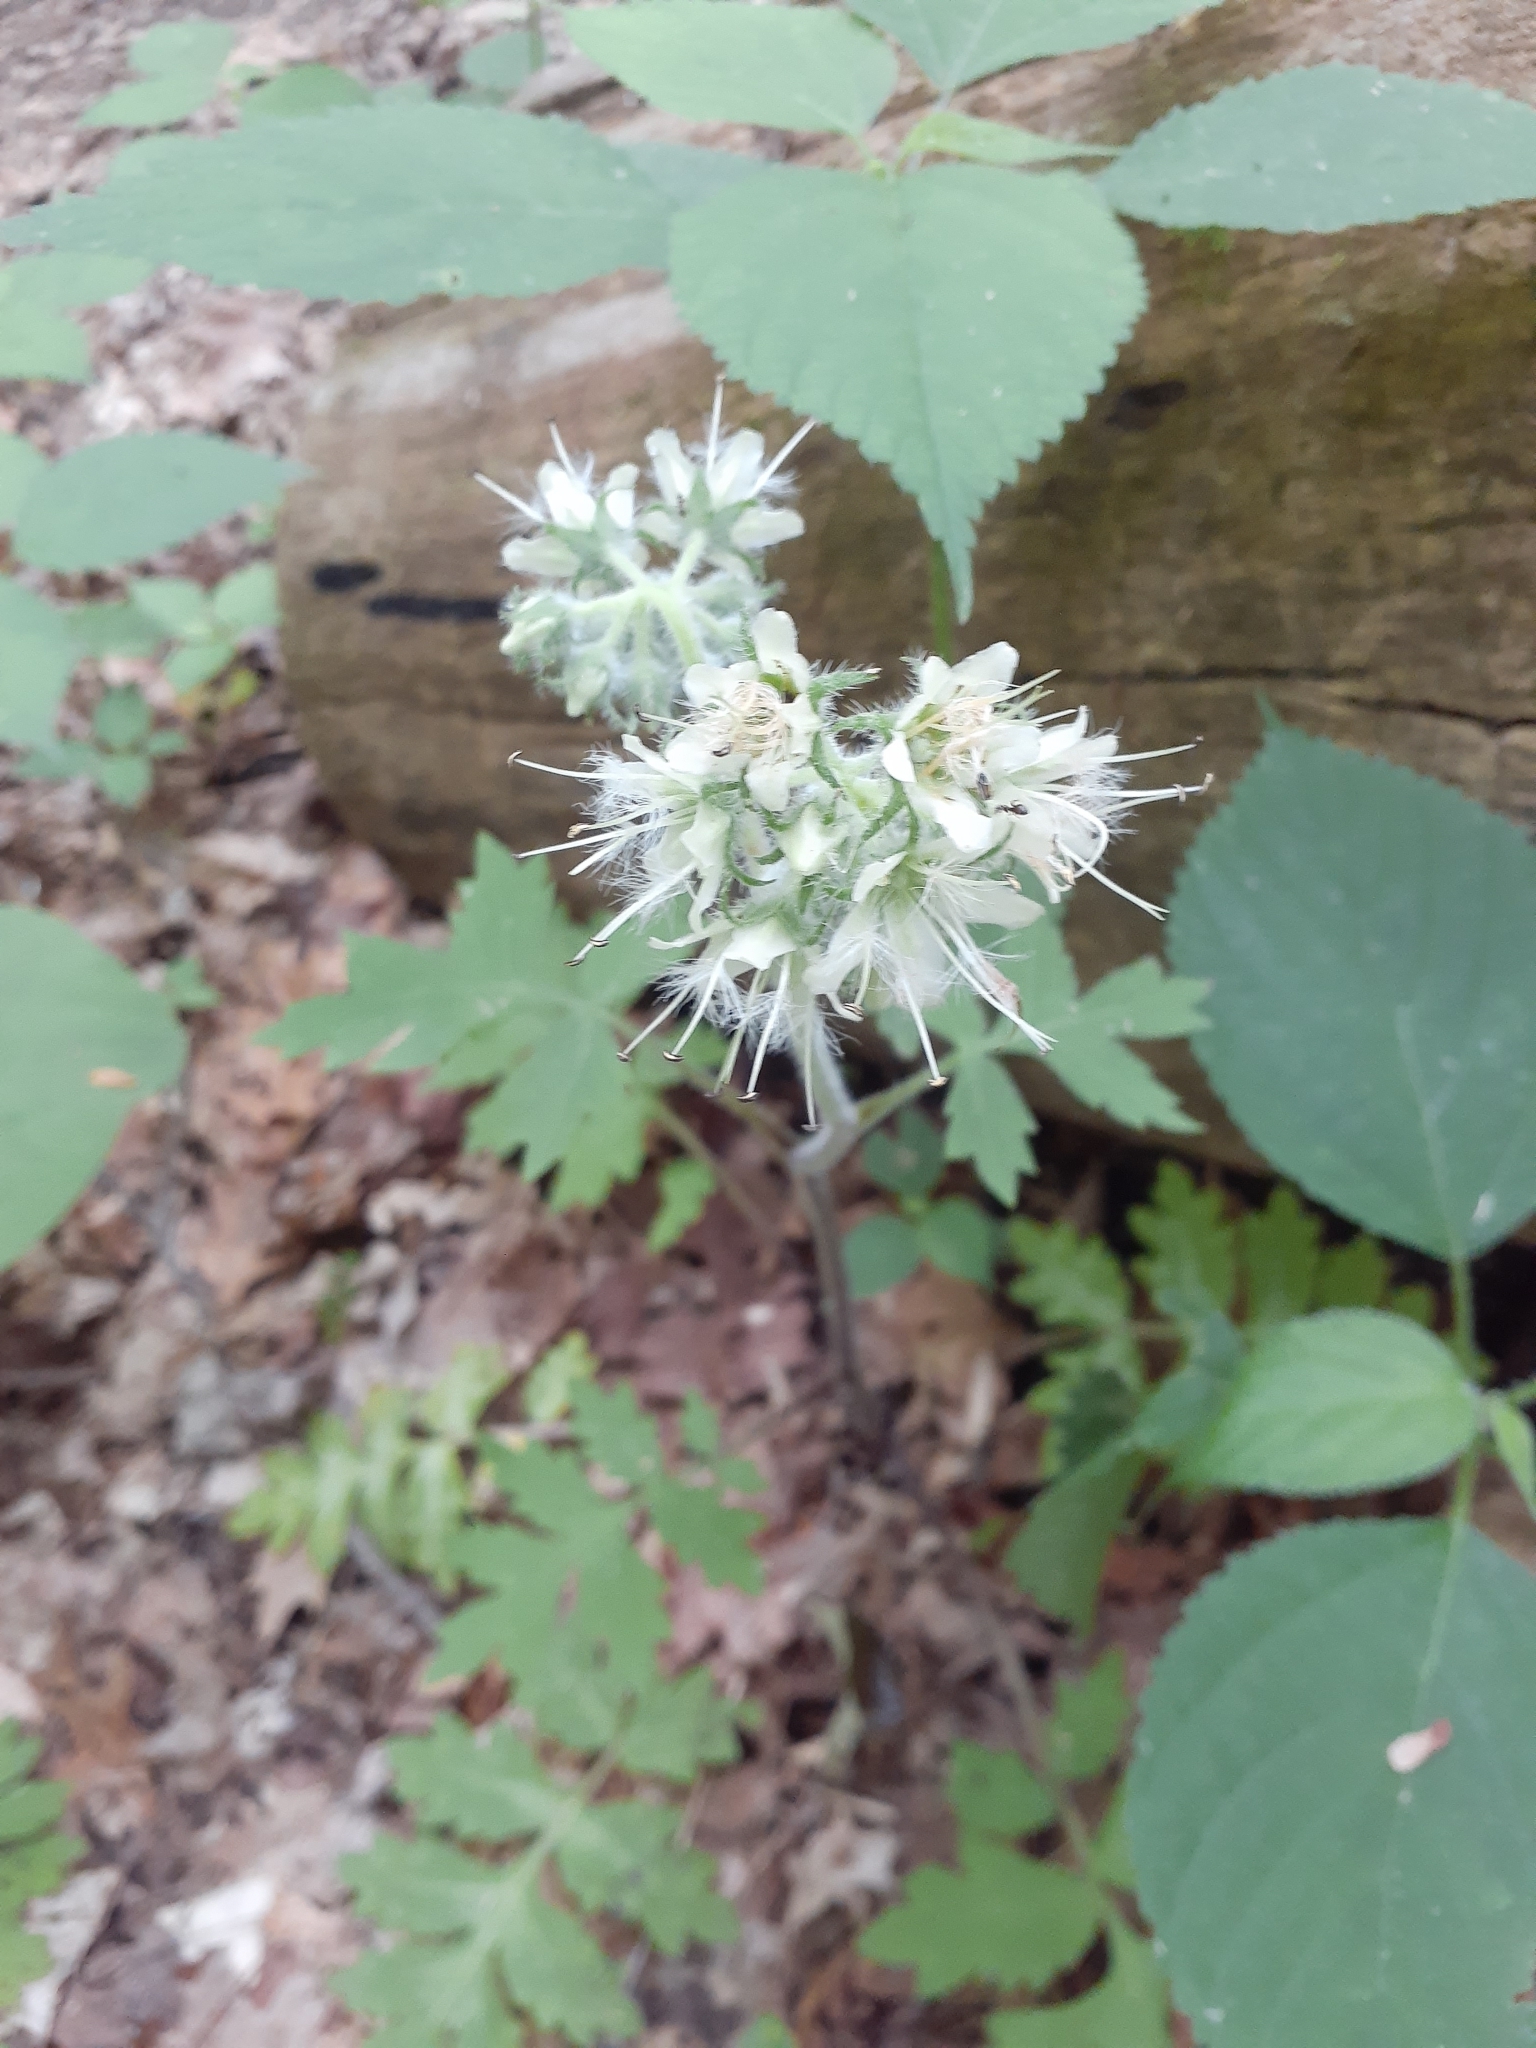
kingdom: Plantae
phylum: Tracheophyta
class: Magnoliopsida
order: Boraginales
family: Hydrophyllaceae
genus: Hydrophyllum
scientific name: Hydrophyllum macrophyllum
